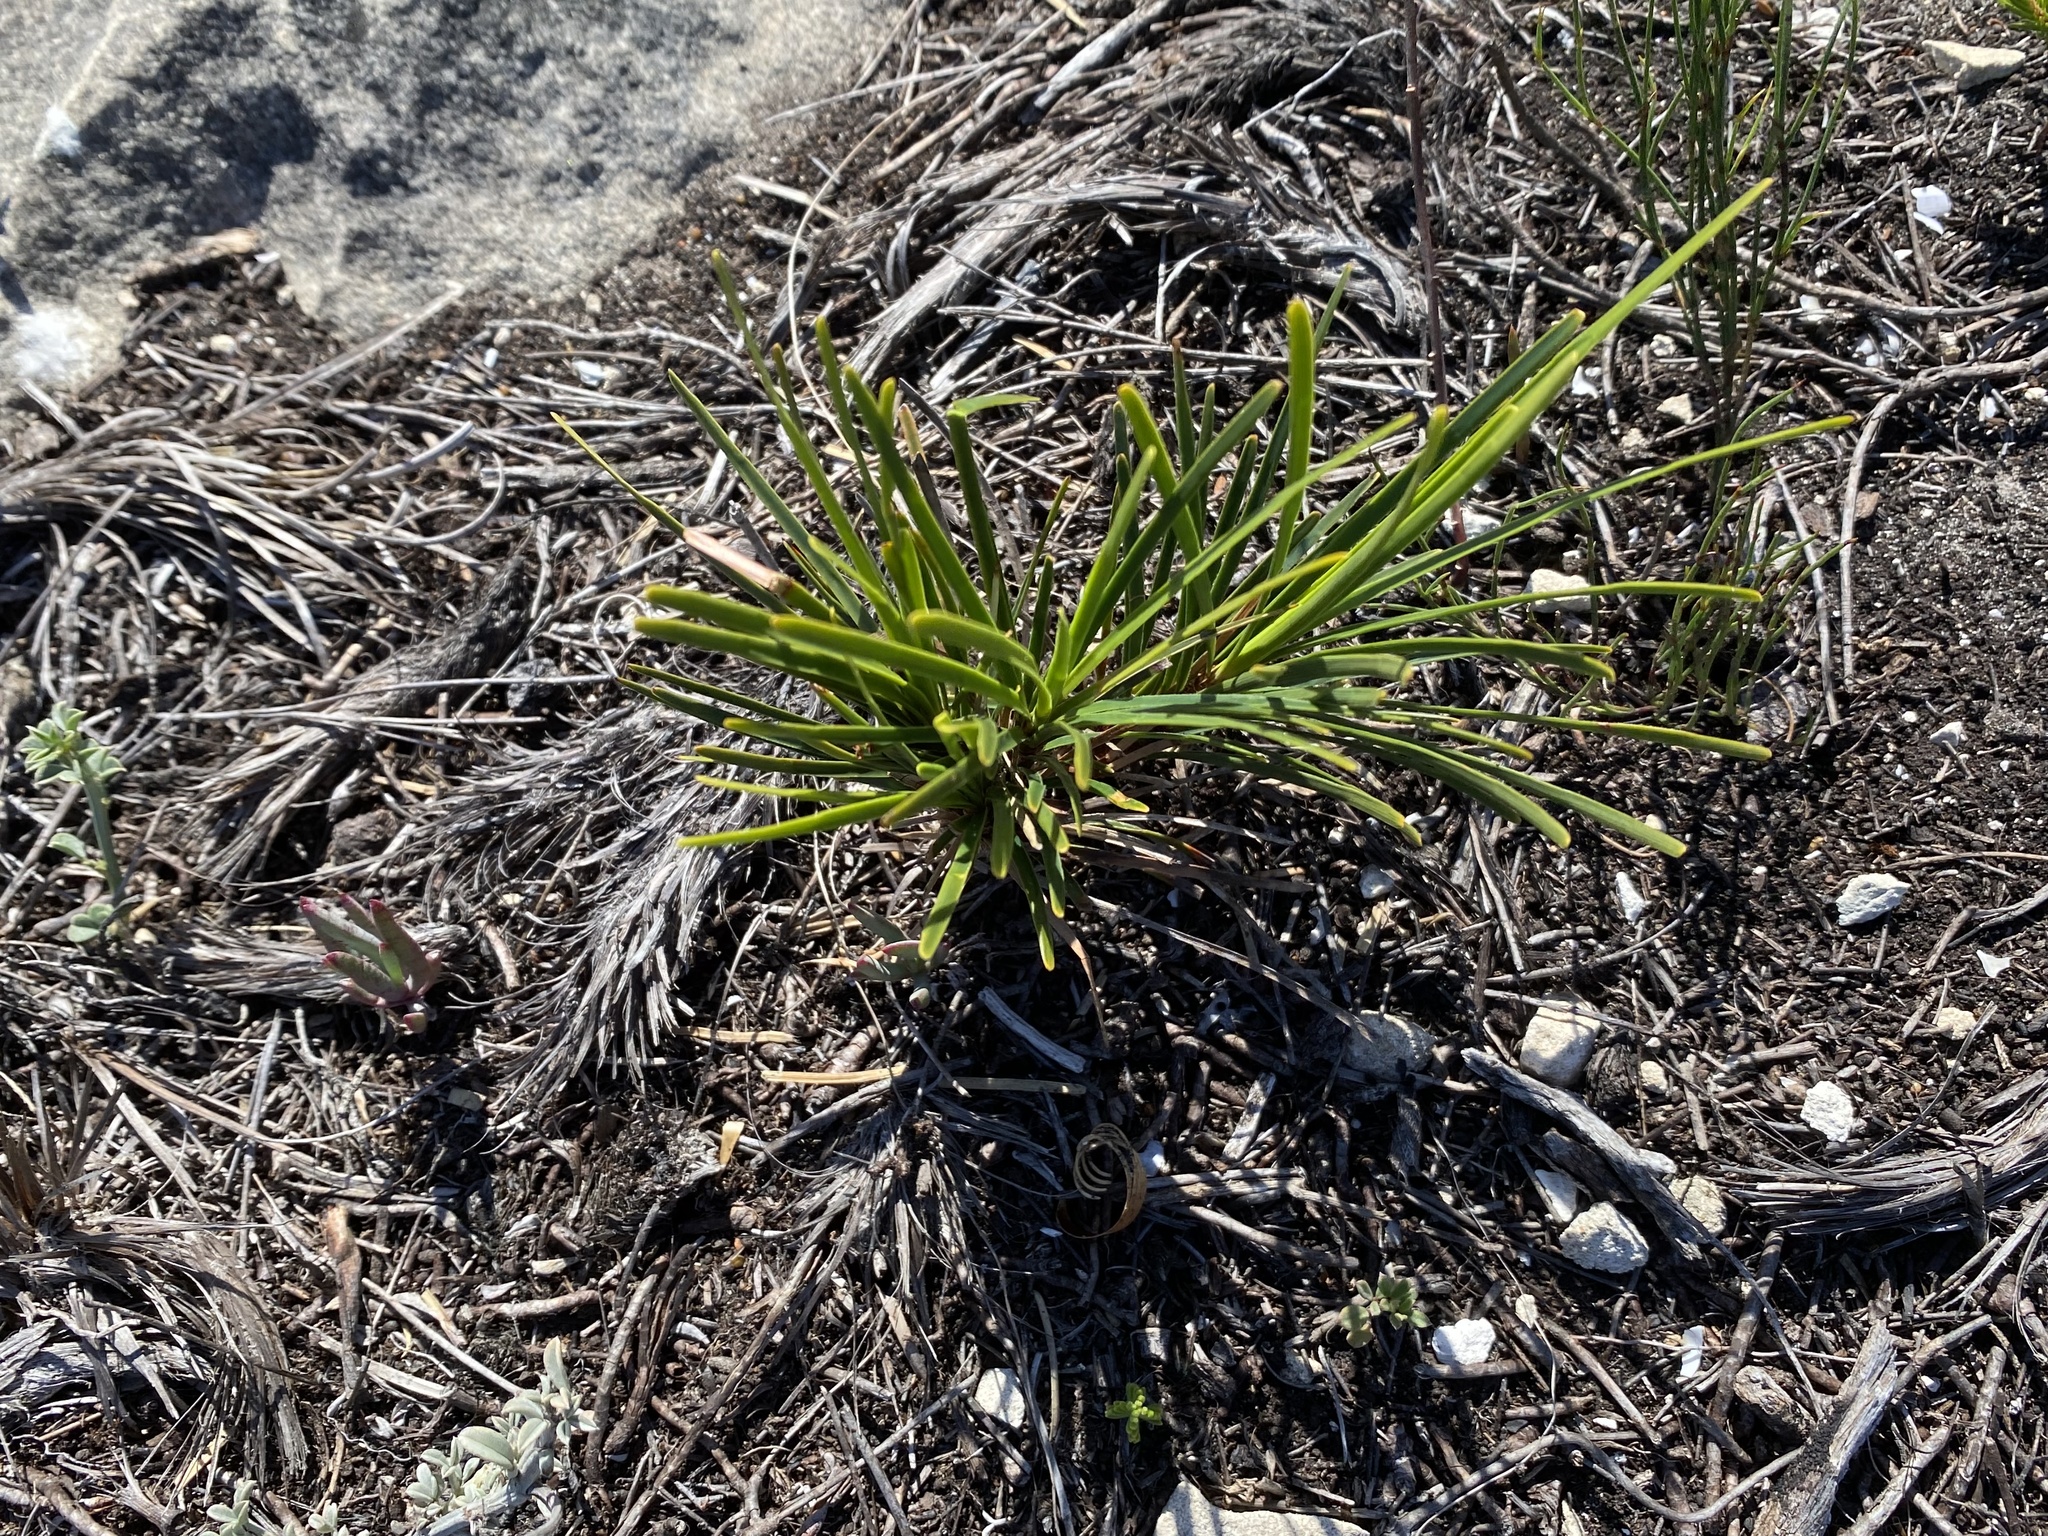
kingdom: Plantae
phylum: Tracheophyta
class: Liliopsida
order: Poales
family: Cyperaceae
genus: Ficinia
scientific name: Ficinia praemorsa
